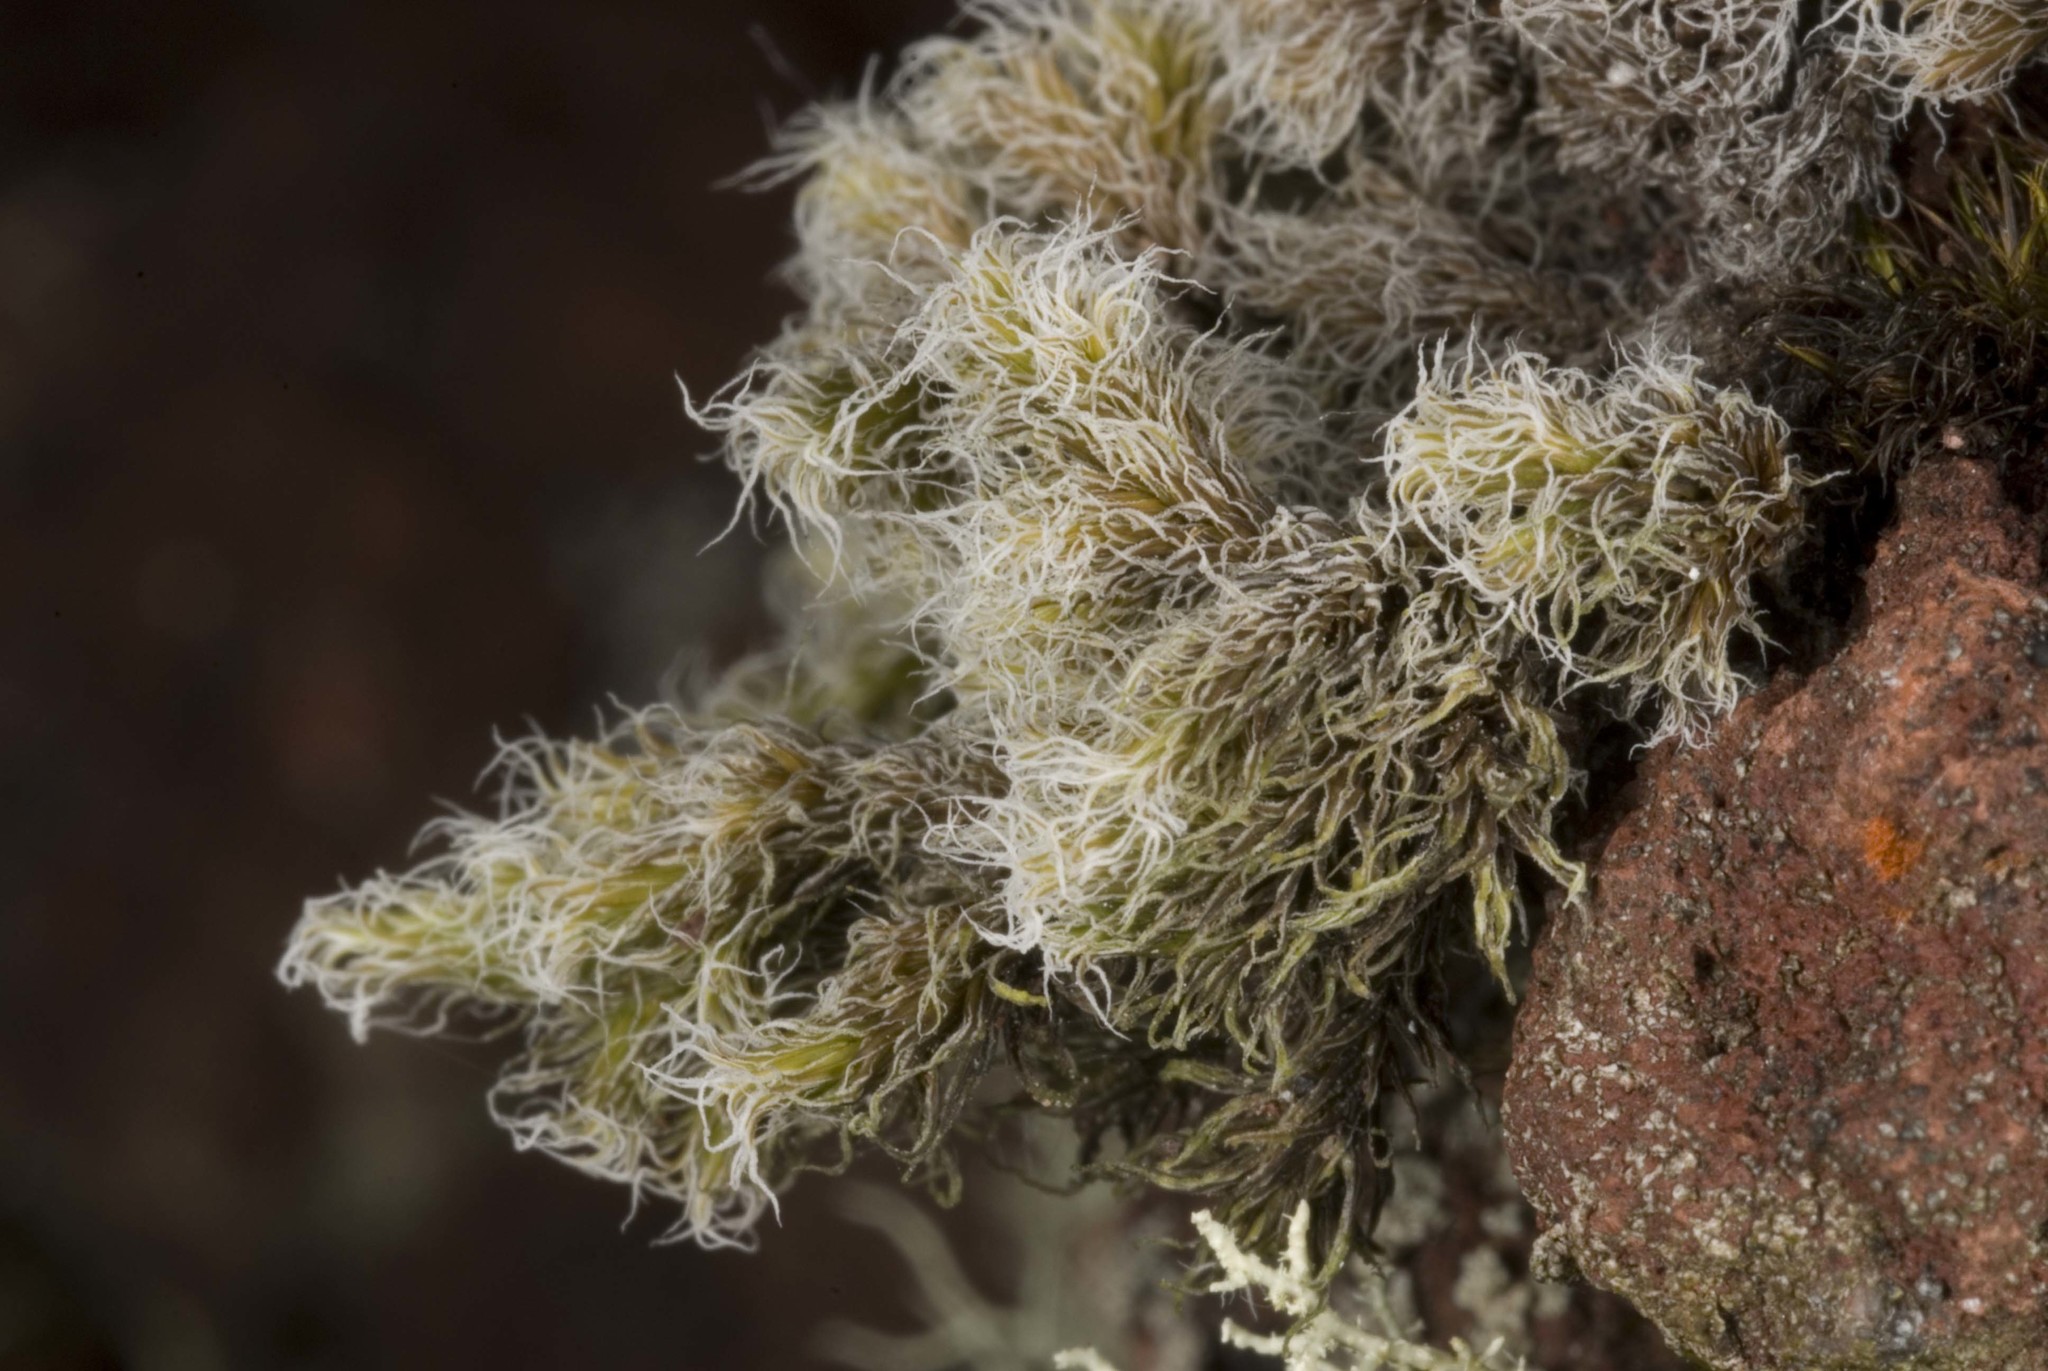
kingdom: Plantae
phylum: Bryophyta
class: Bryopsida
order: Grimmiales
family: Grimmiaceae
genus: Racomitrium
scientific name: Racomitrium pruinosum
